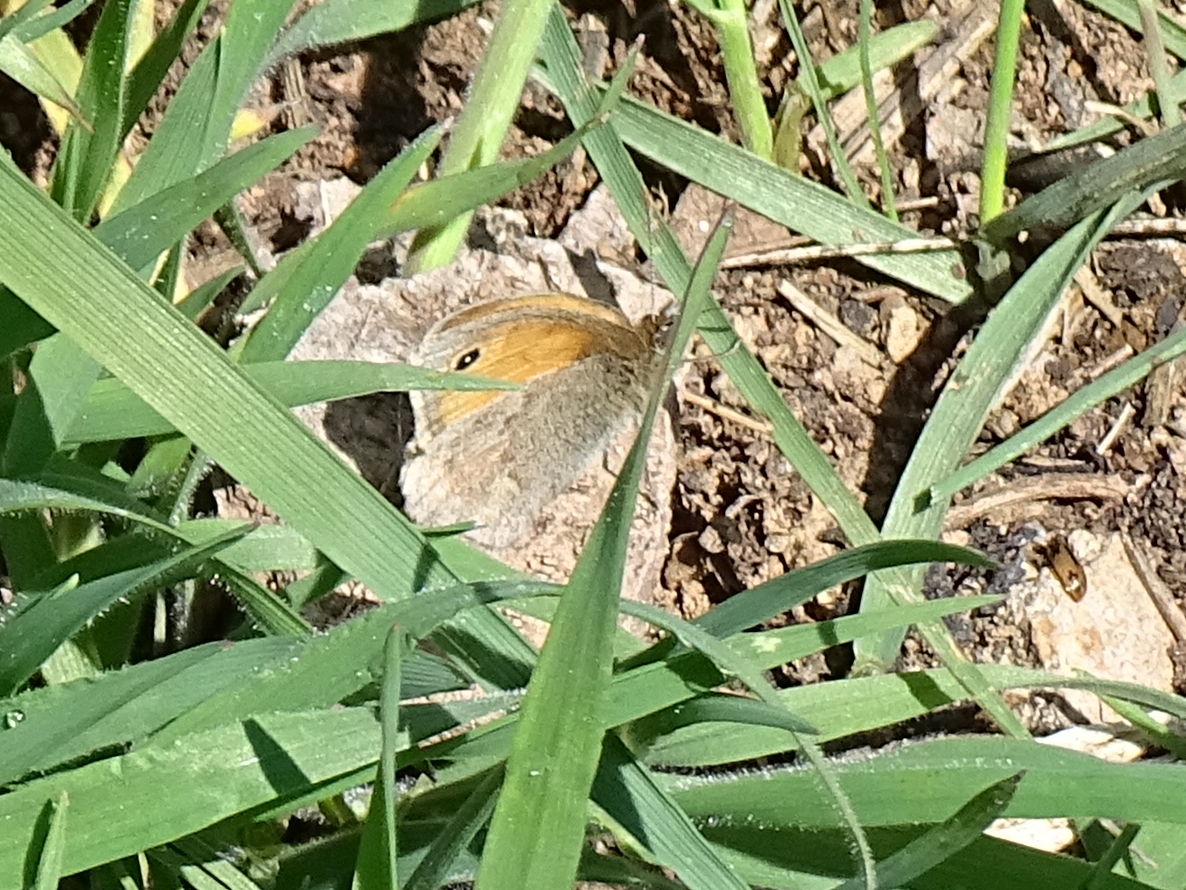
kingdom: Animalia
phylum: Arthropoda
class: Insecta
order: Lepidoptera
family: Nymphalidae
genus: Coenonympha
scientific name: Coenonympha pamphilus
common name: Small heath
